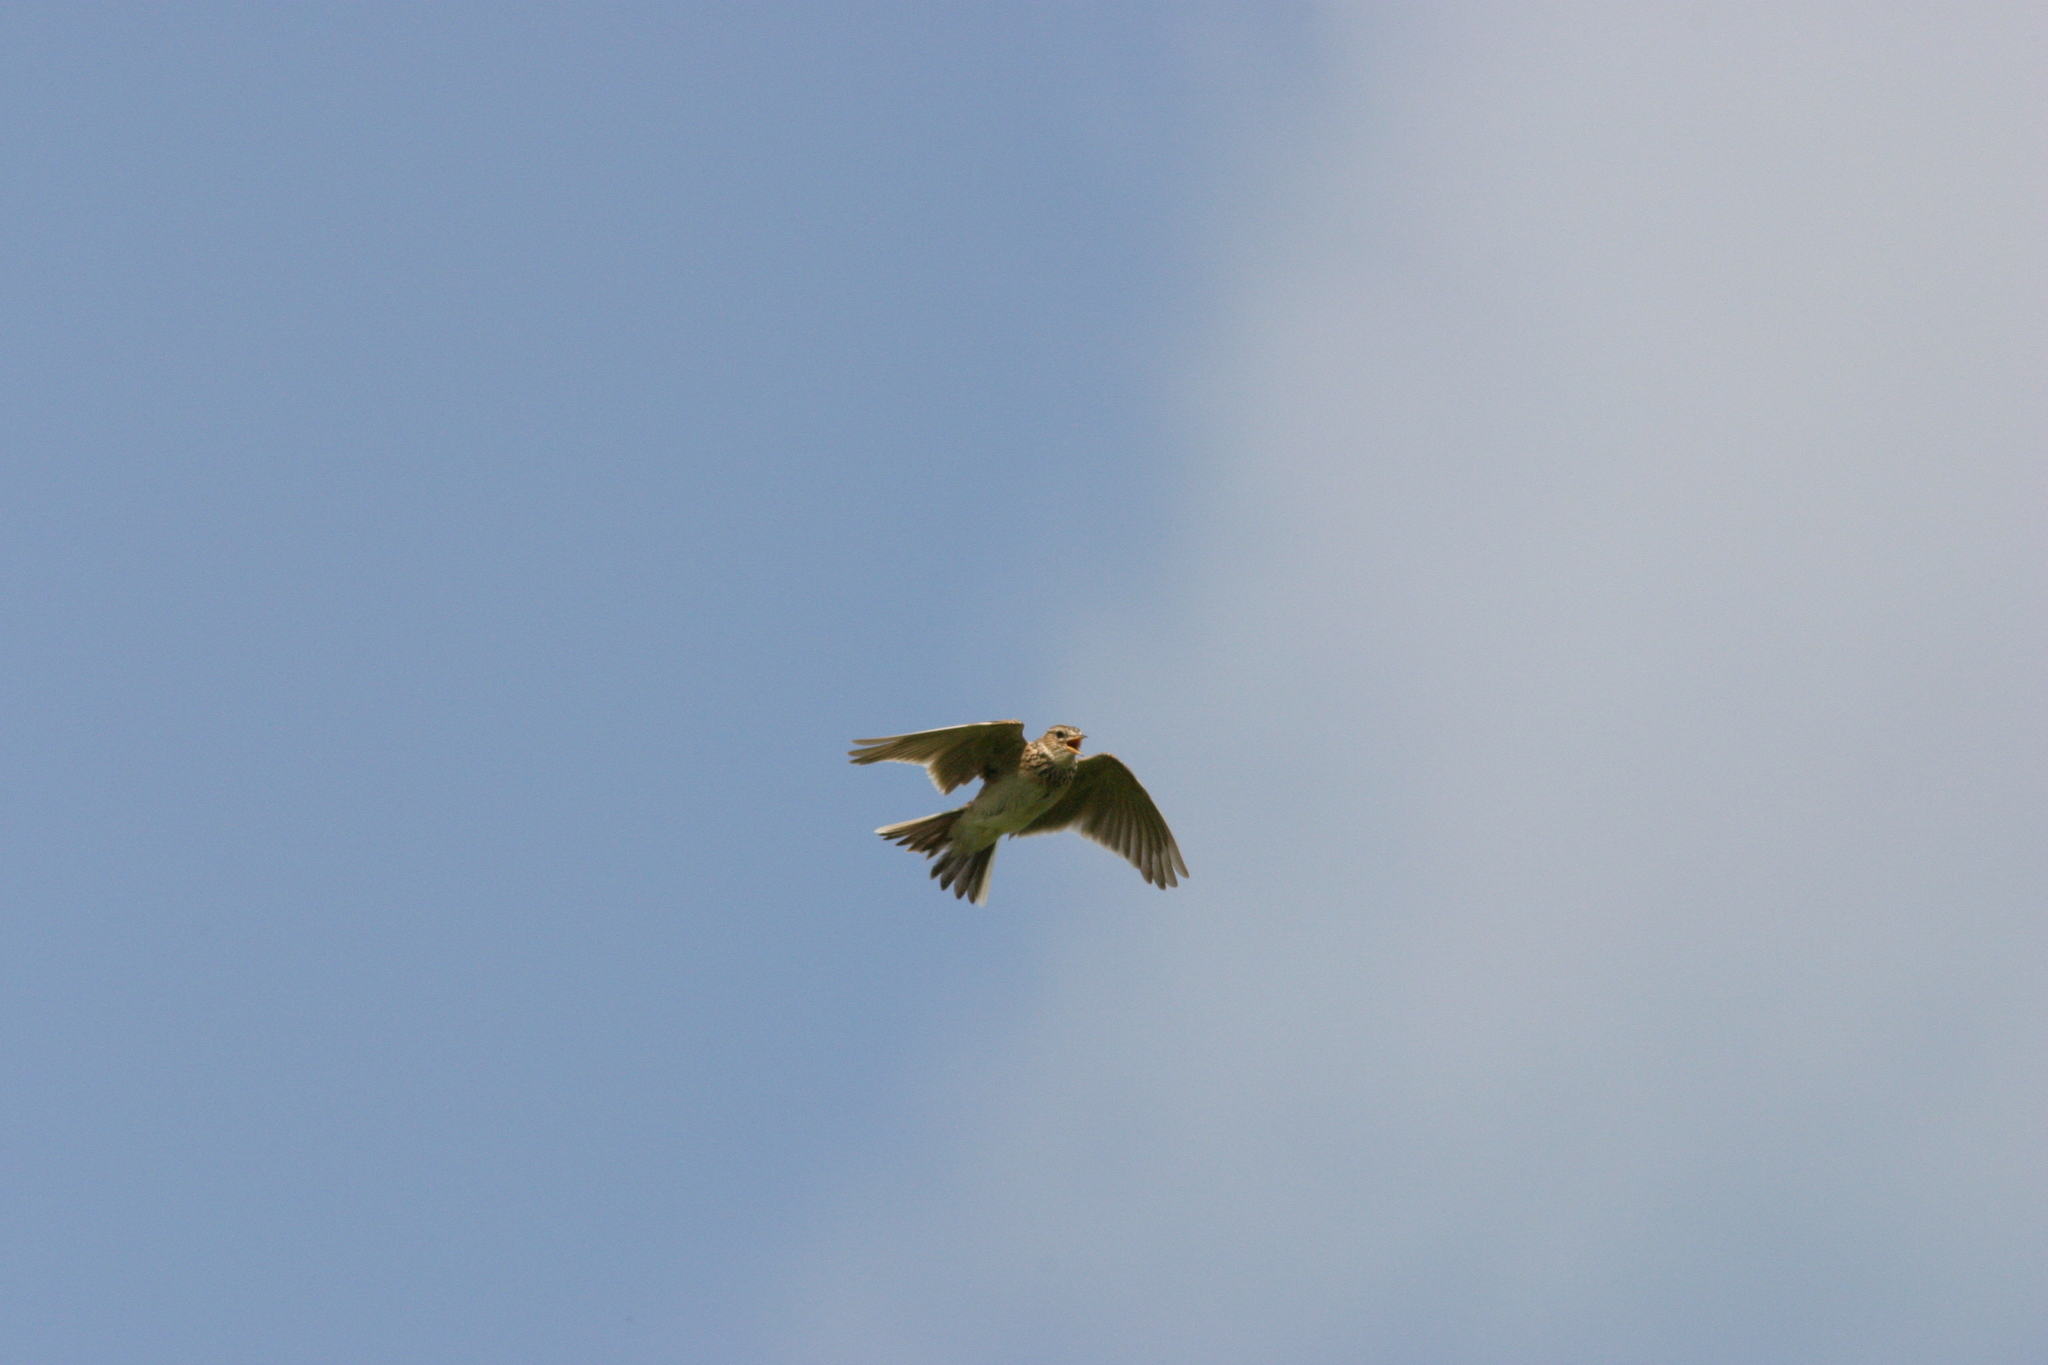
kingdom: Animalia
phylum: Chordata
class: Aves
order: Passeriformes
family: Alaudidae
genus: Alauda
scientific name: Alauda arvensis
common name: Eurasian skylark
